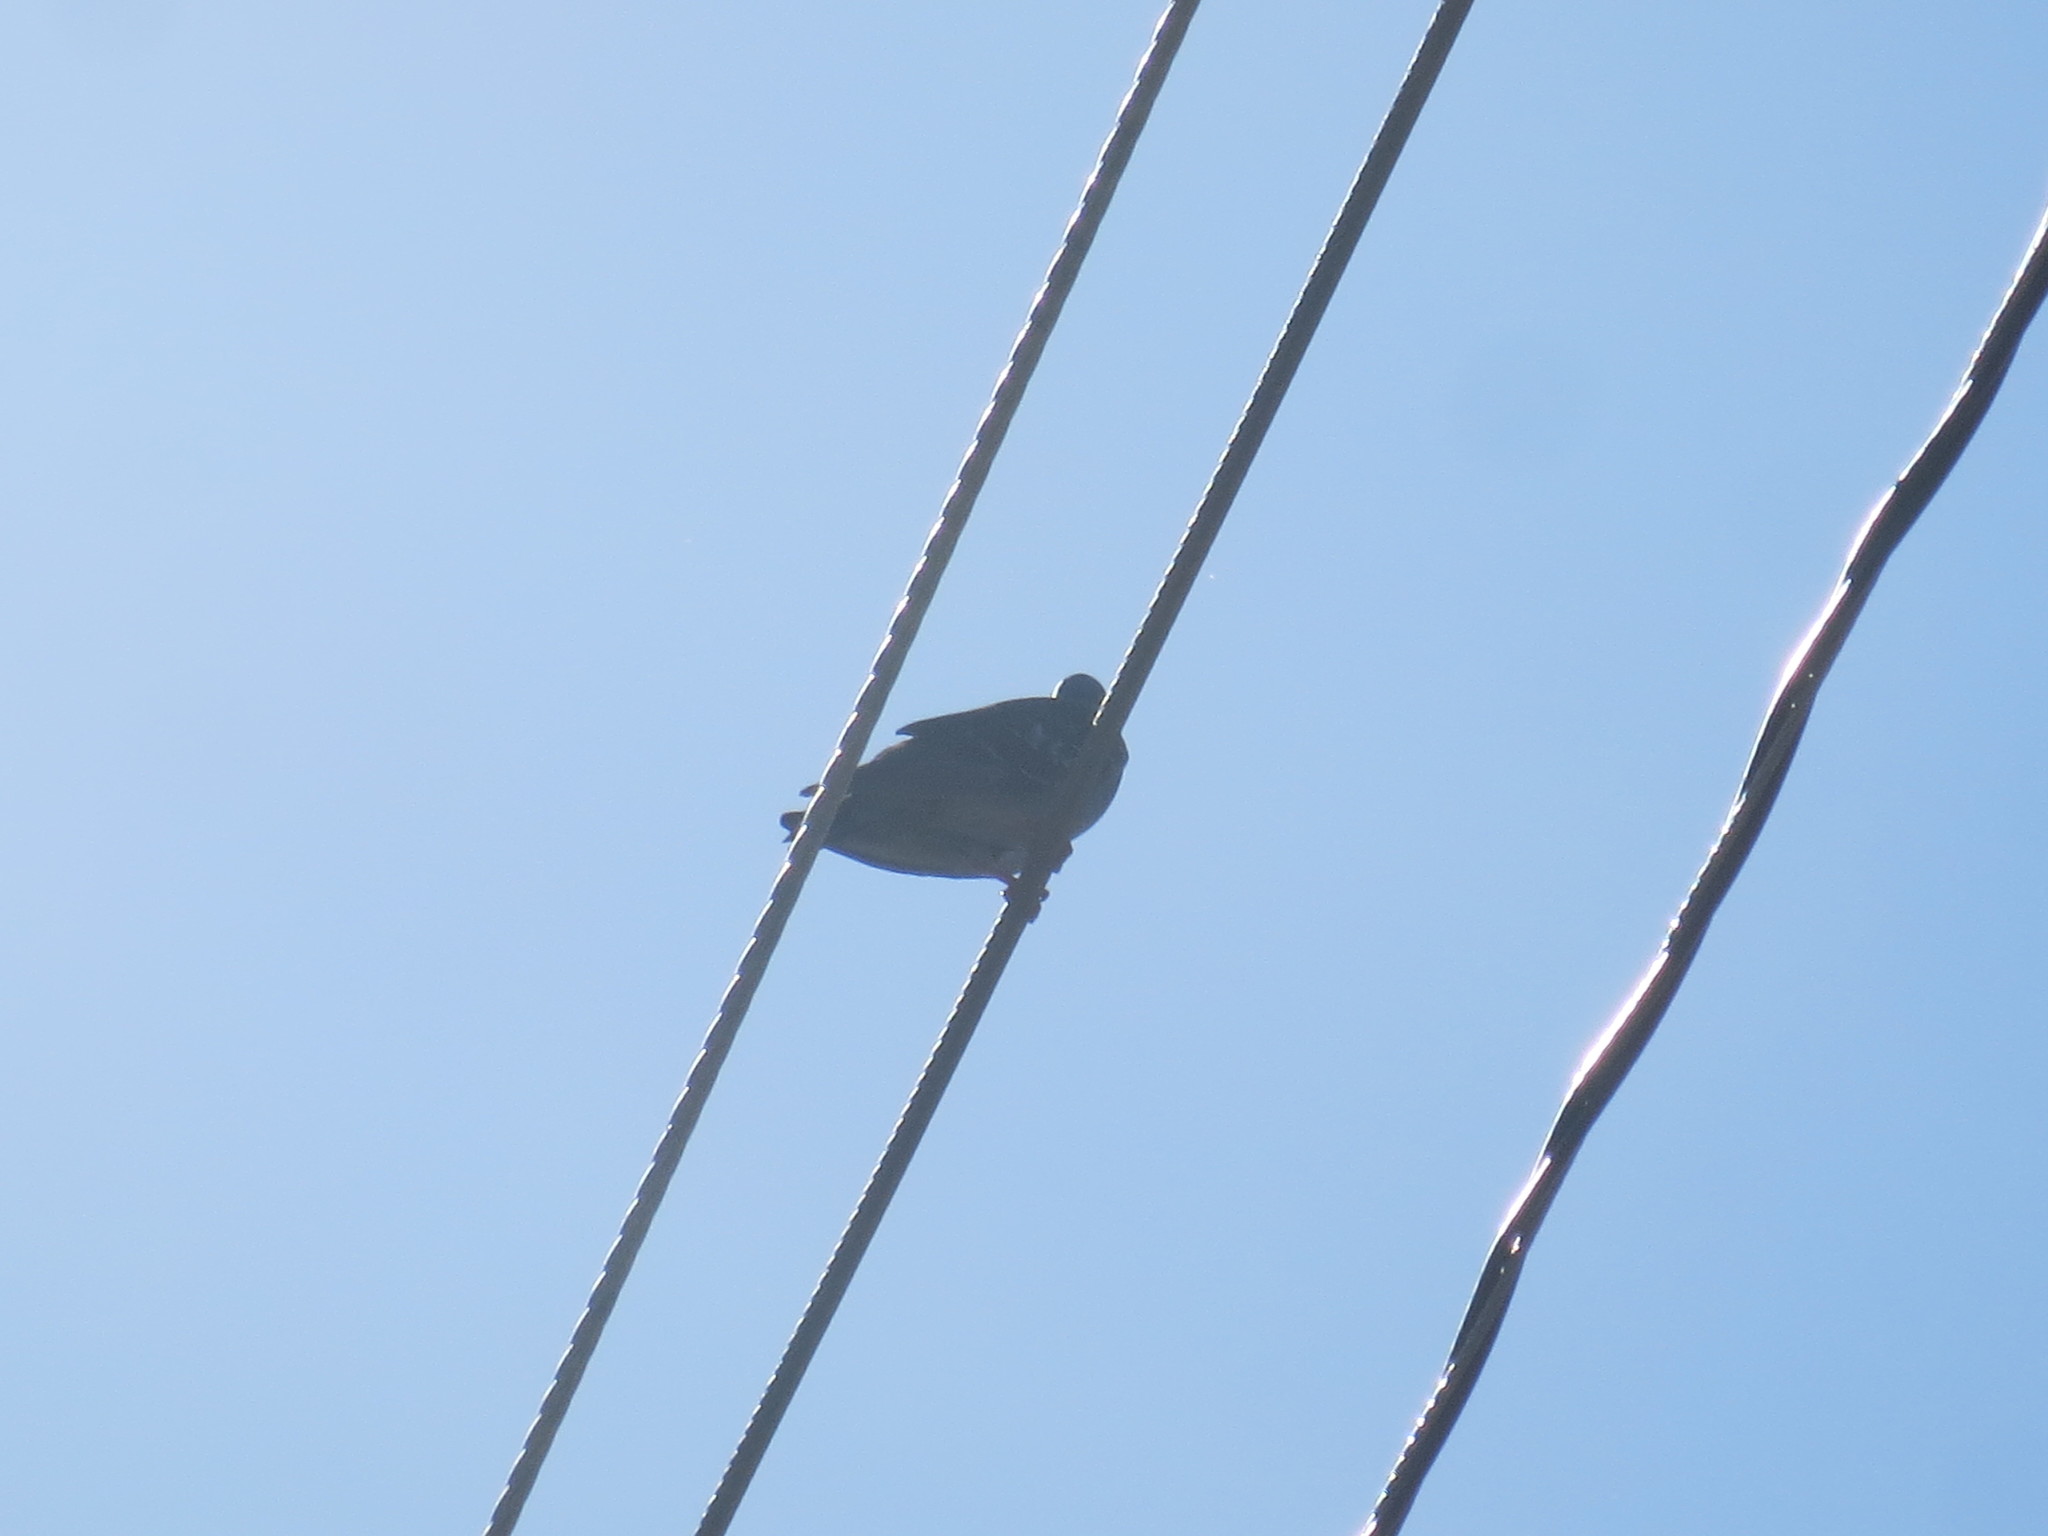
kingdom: Animalia
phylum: Chordata
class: Aves
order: Columbiformes
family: Columbidae
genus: Columba
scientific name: Columba livia
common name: Rock pigeon
